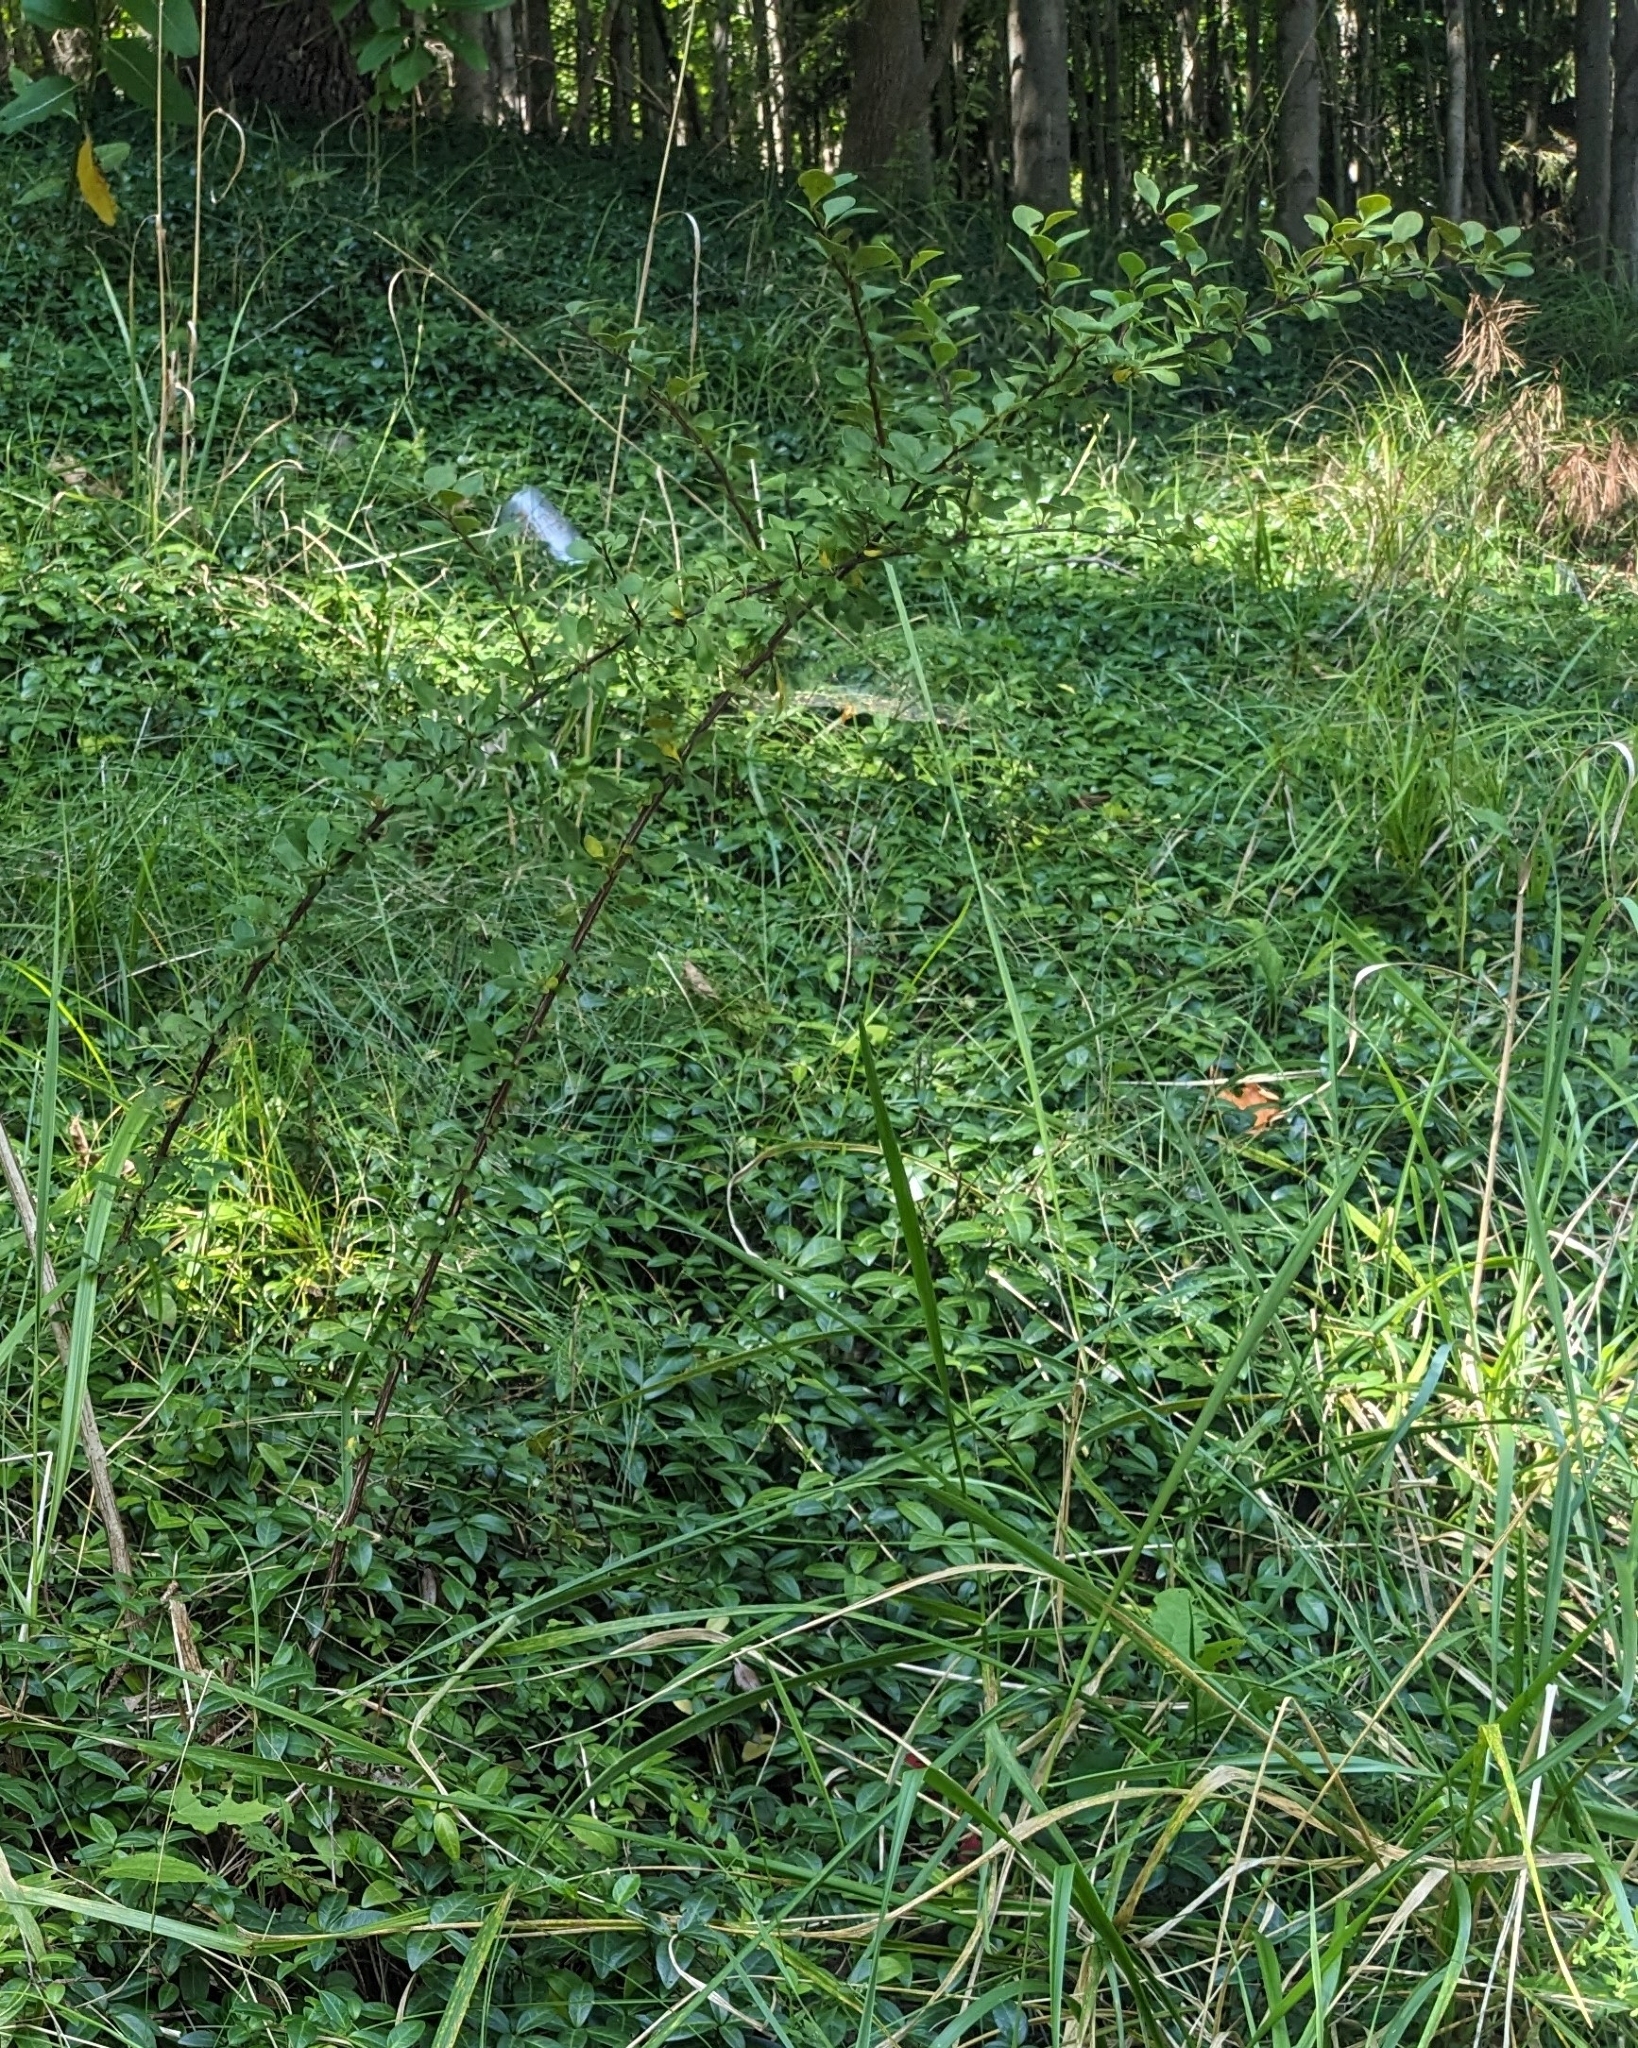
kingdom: Plantae
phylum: Tracheophyta
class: Magnoliopsida
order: Ranunculales
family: Berberidaceae
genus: Berberis
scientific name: Berberis thunbergii
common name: Japanese barberry
